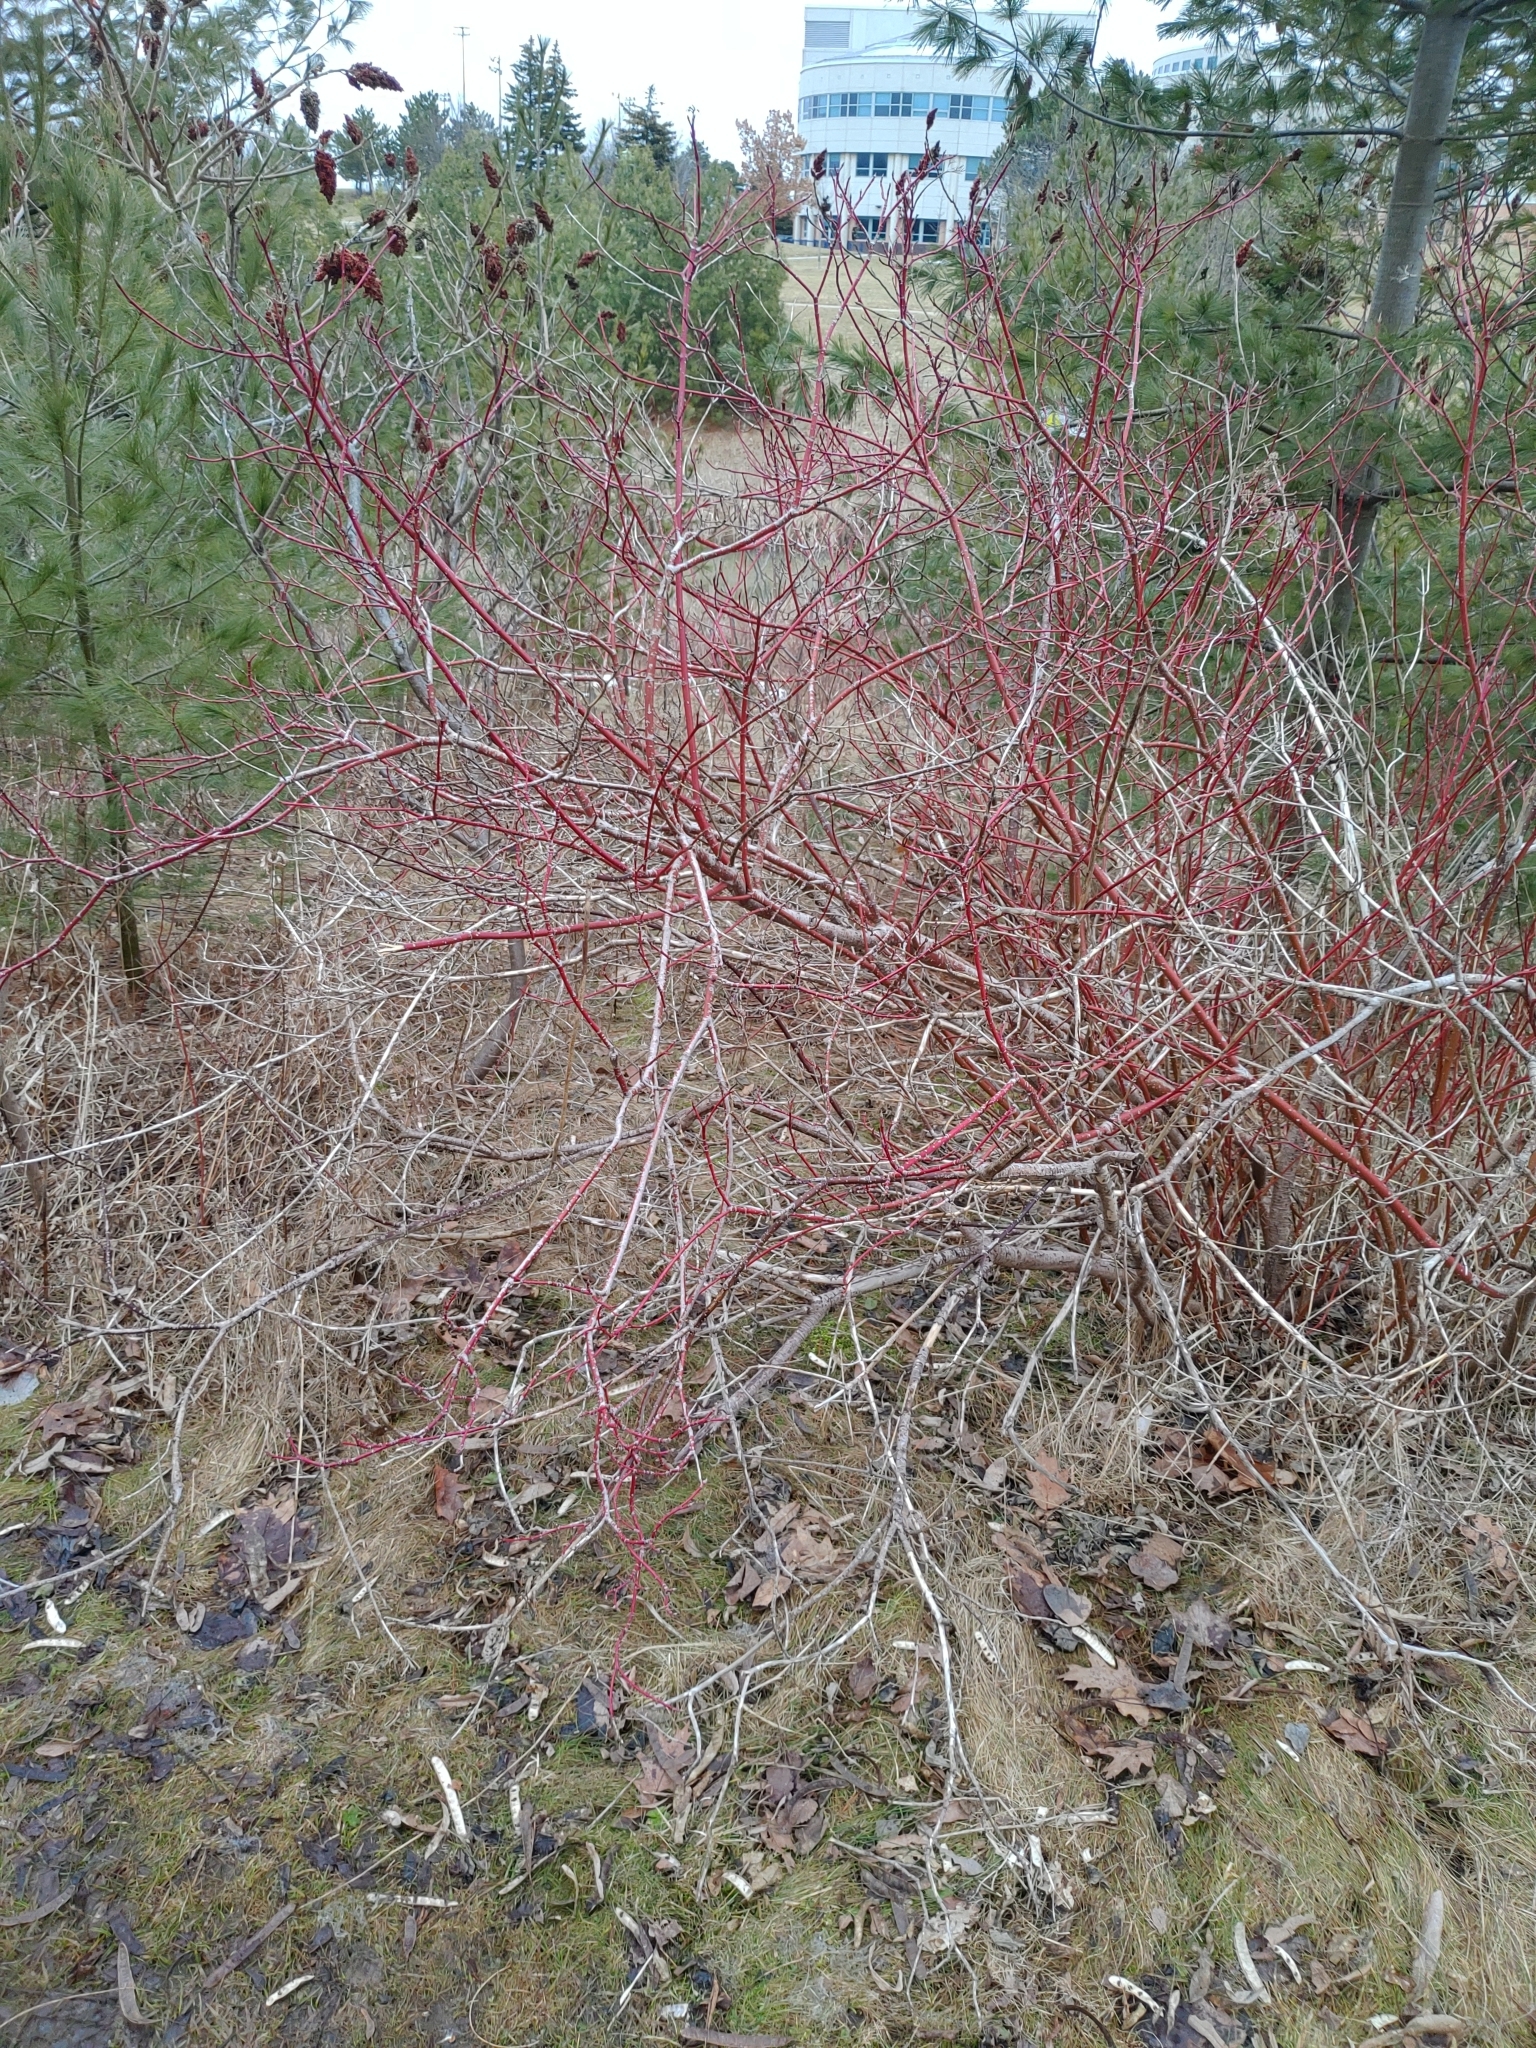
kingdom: Plantae
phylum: Tracheophyta
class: Magnoliopsida
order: Cornales
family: Cornaceae
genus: Cornus
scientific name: Cornus sericea
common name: Red-osier dogwood
